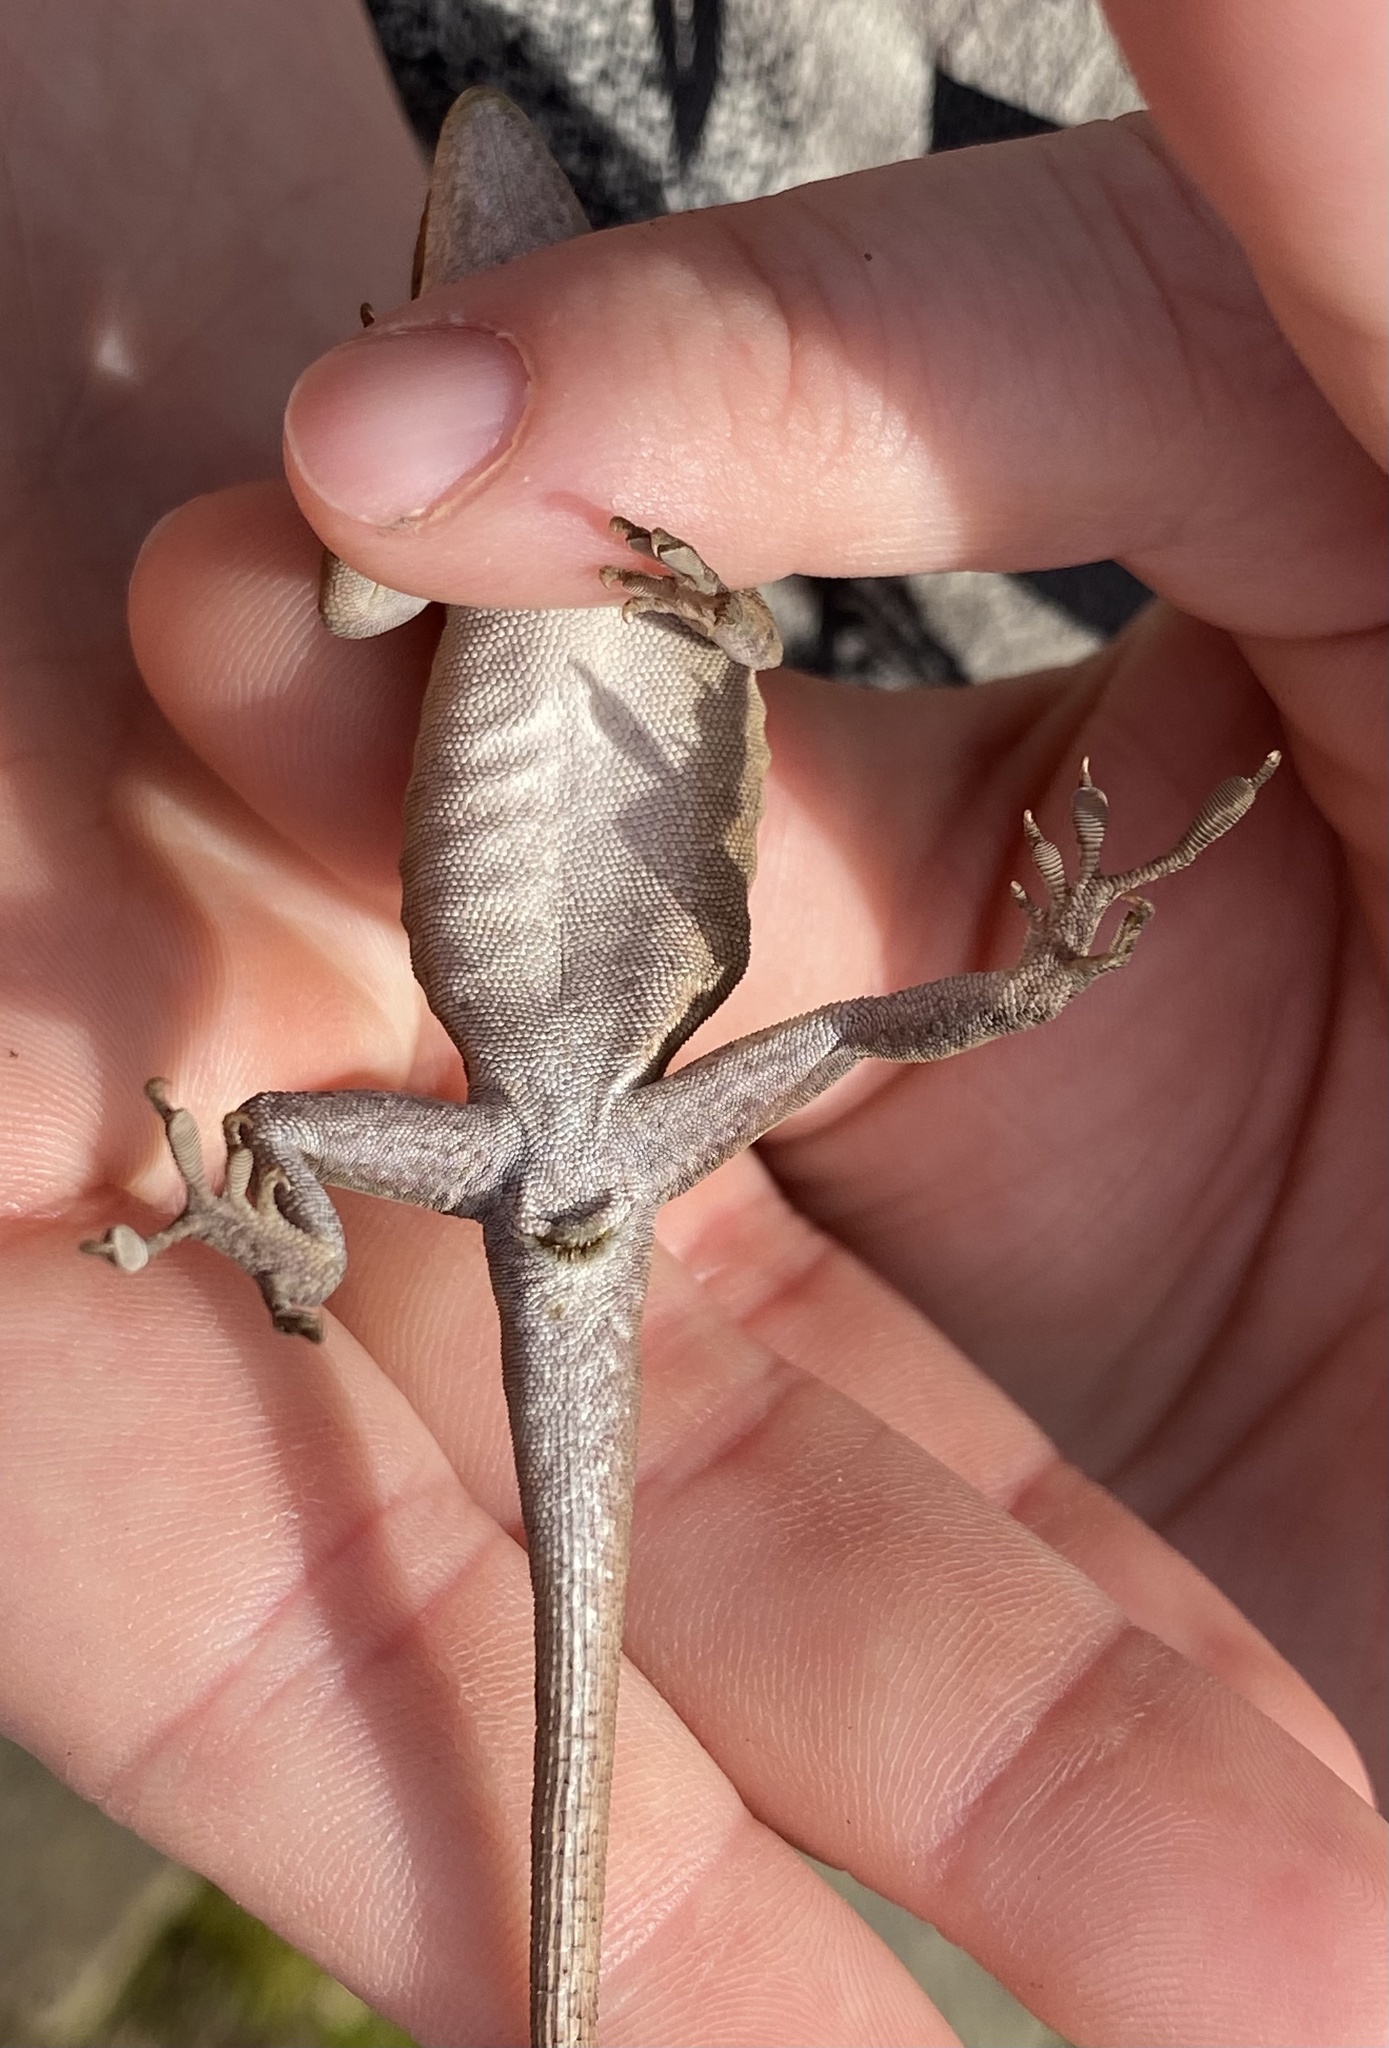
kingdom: Animalia
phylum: Chordata
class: Squamata
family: Dactyloidae
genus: Anolis
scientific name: Anolis carolinensis
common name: Green anole
